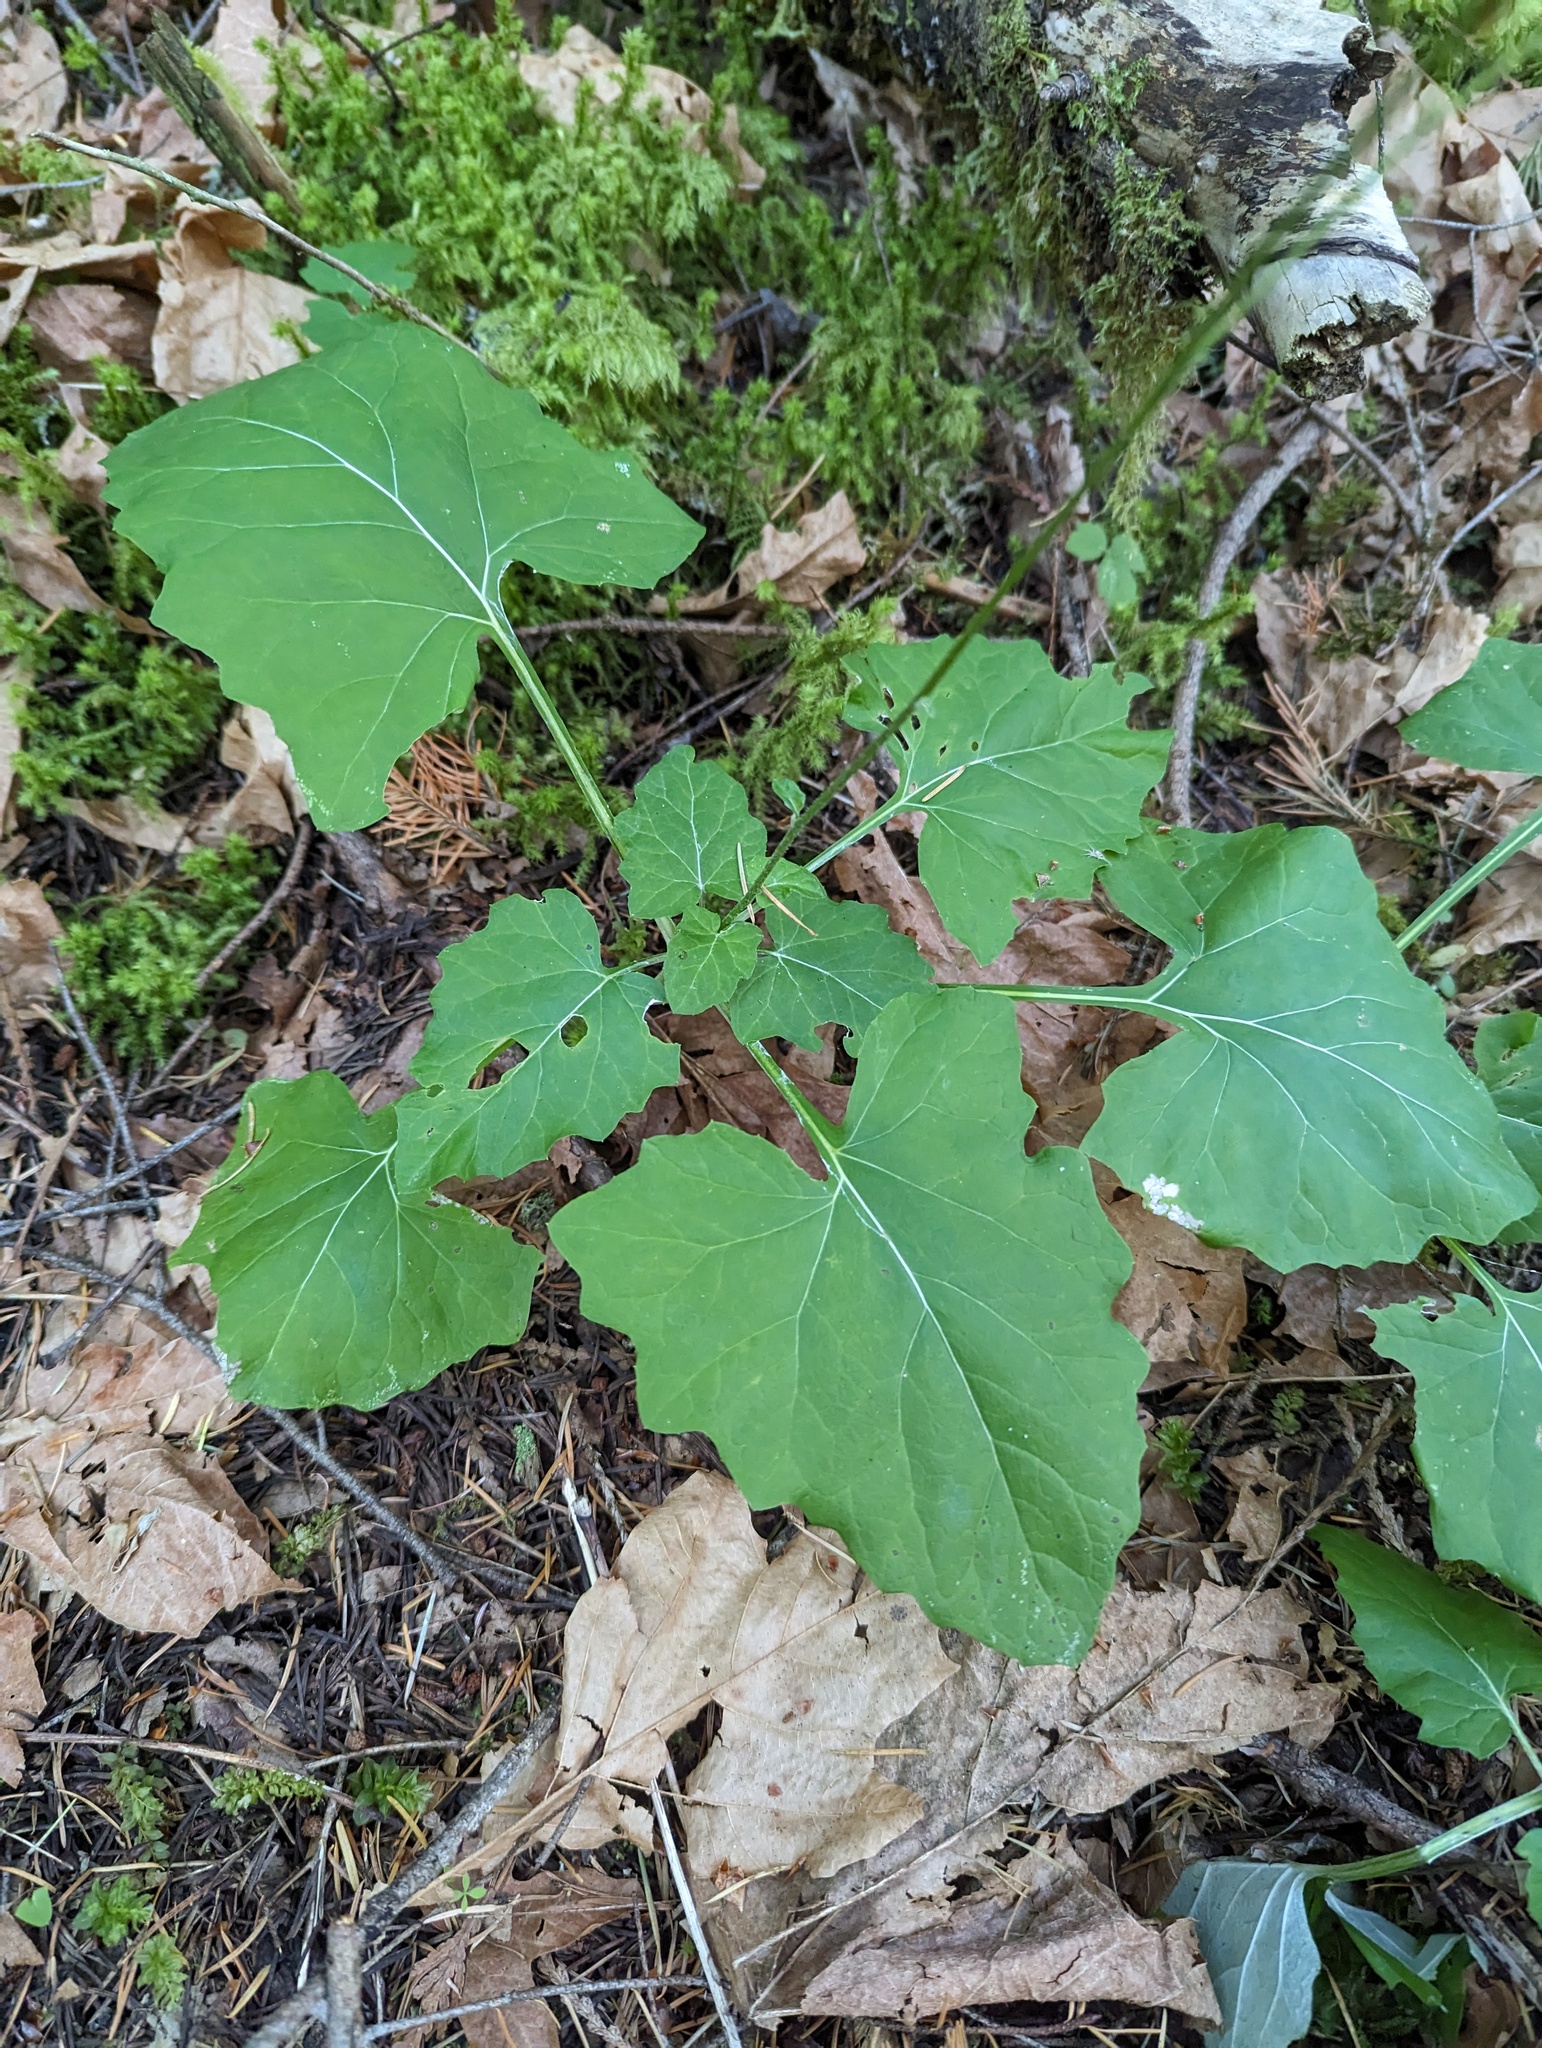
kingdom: Plantae
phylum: Tracheophyta
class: Magnoliopsida
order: Asterales
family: Asteraceae
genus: Adenocaulon
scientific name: Adenocaulon bicolor
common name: Trailplant
